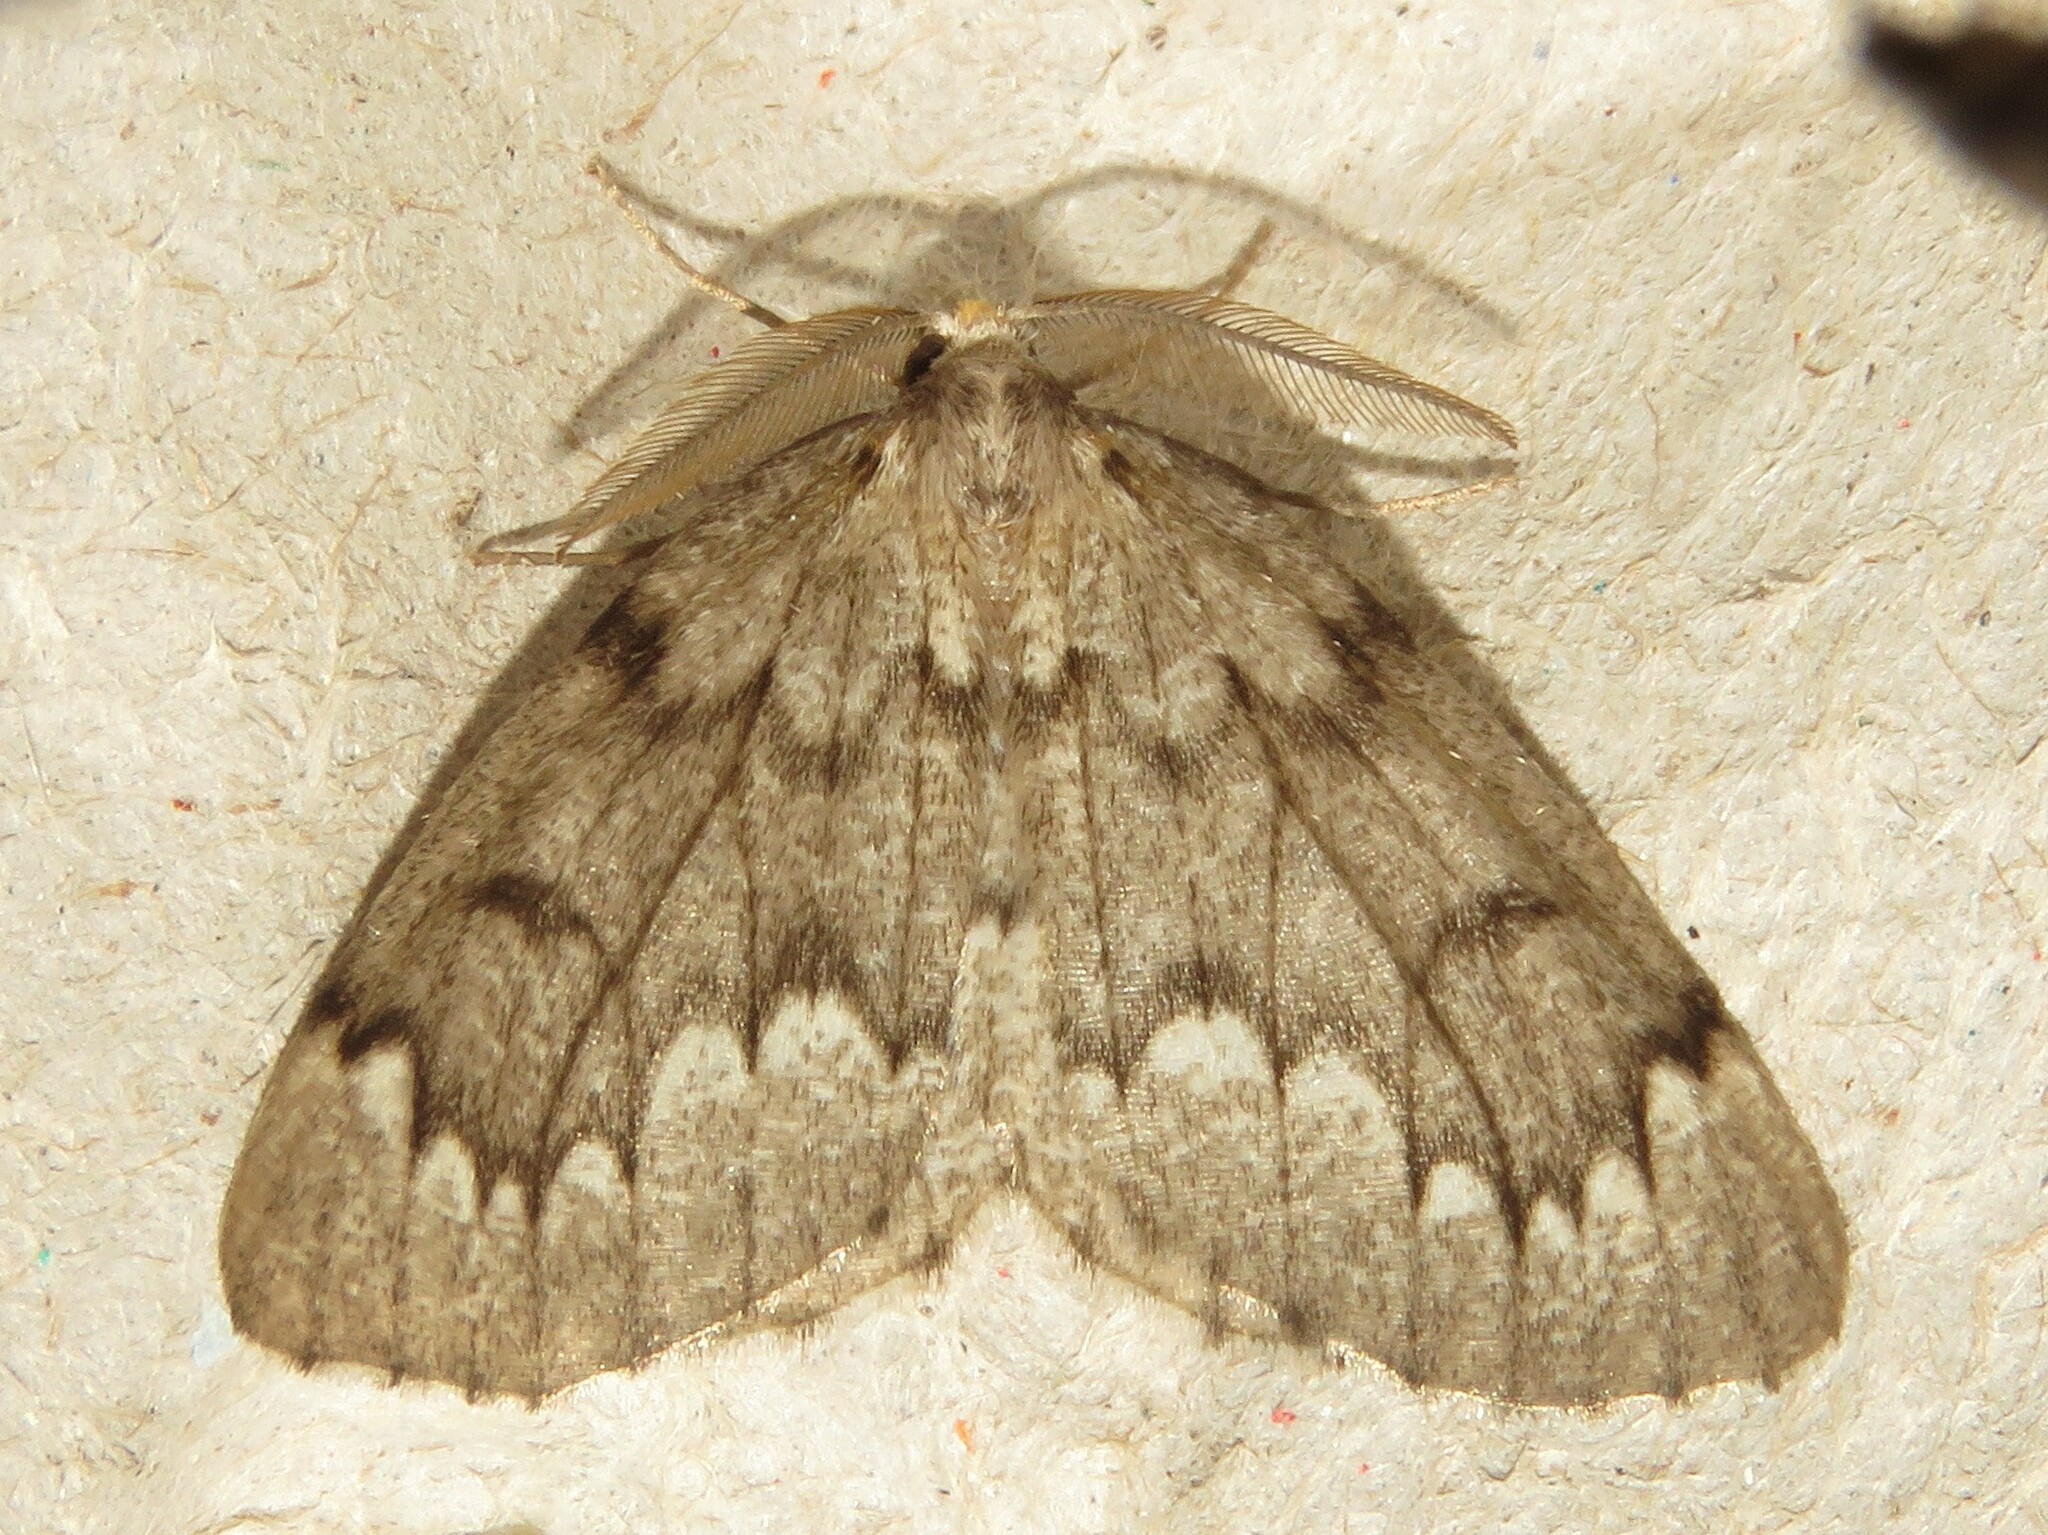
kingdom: Animalia
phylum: Arthropoda
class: Insecta
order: Lepidoptera
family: Geometridae
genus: Nepytia
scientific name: Nepytia canosaria
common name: False hemlock looper
